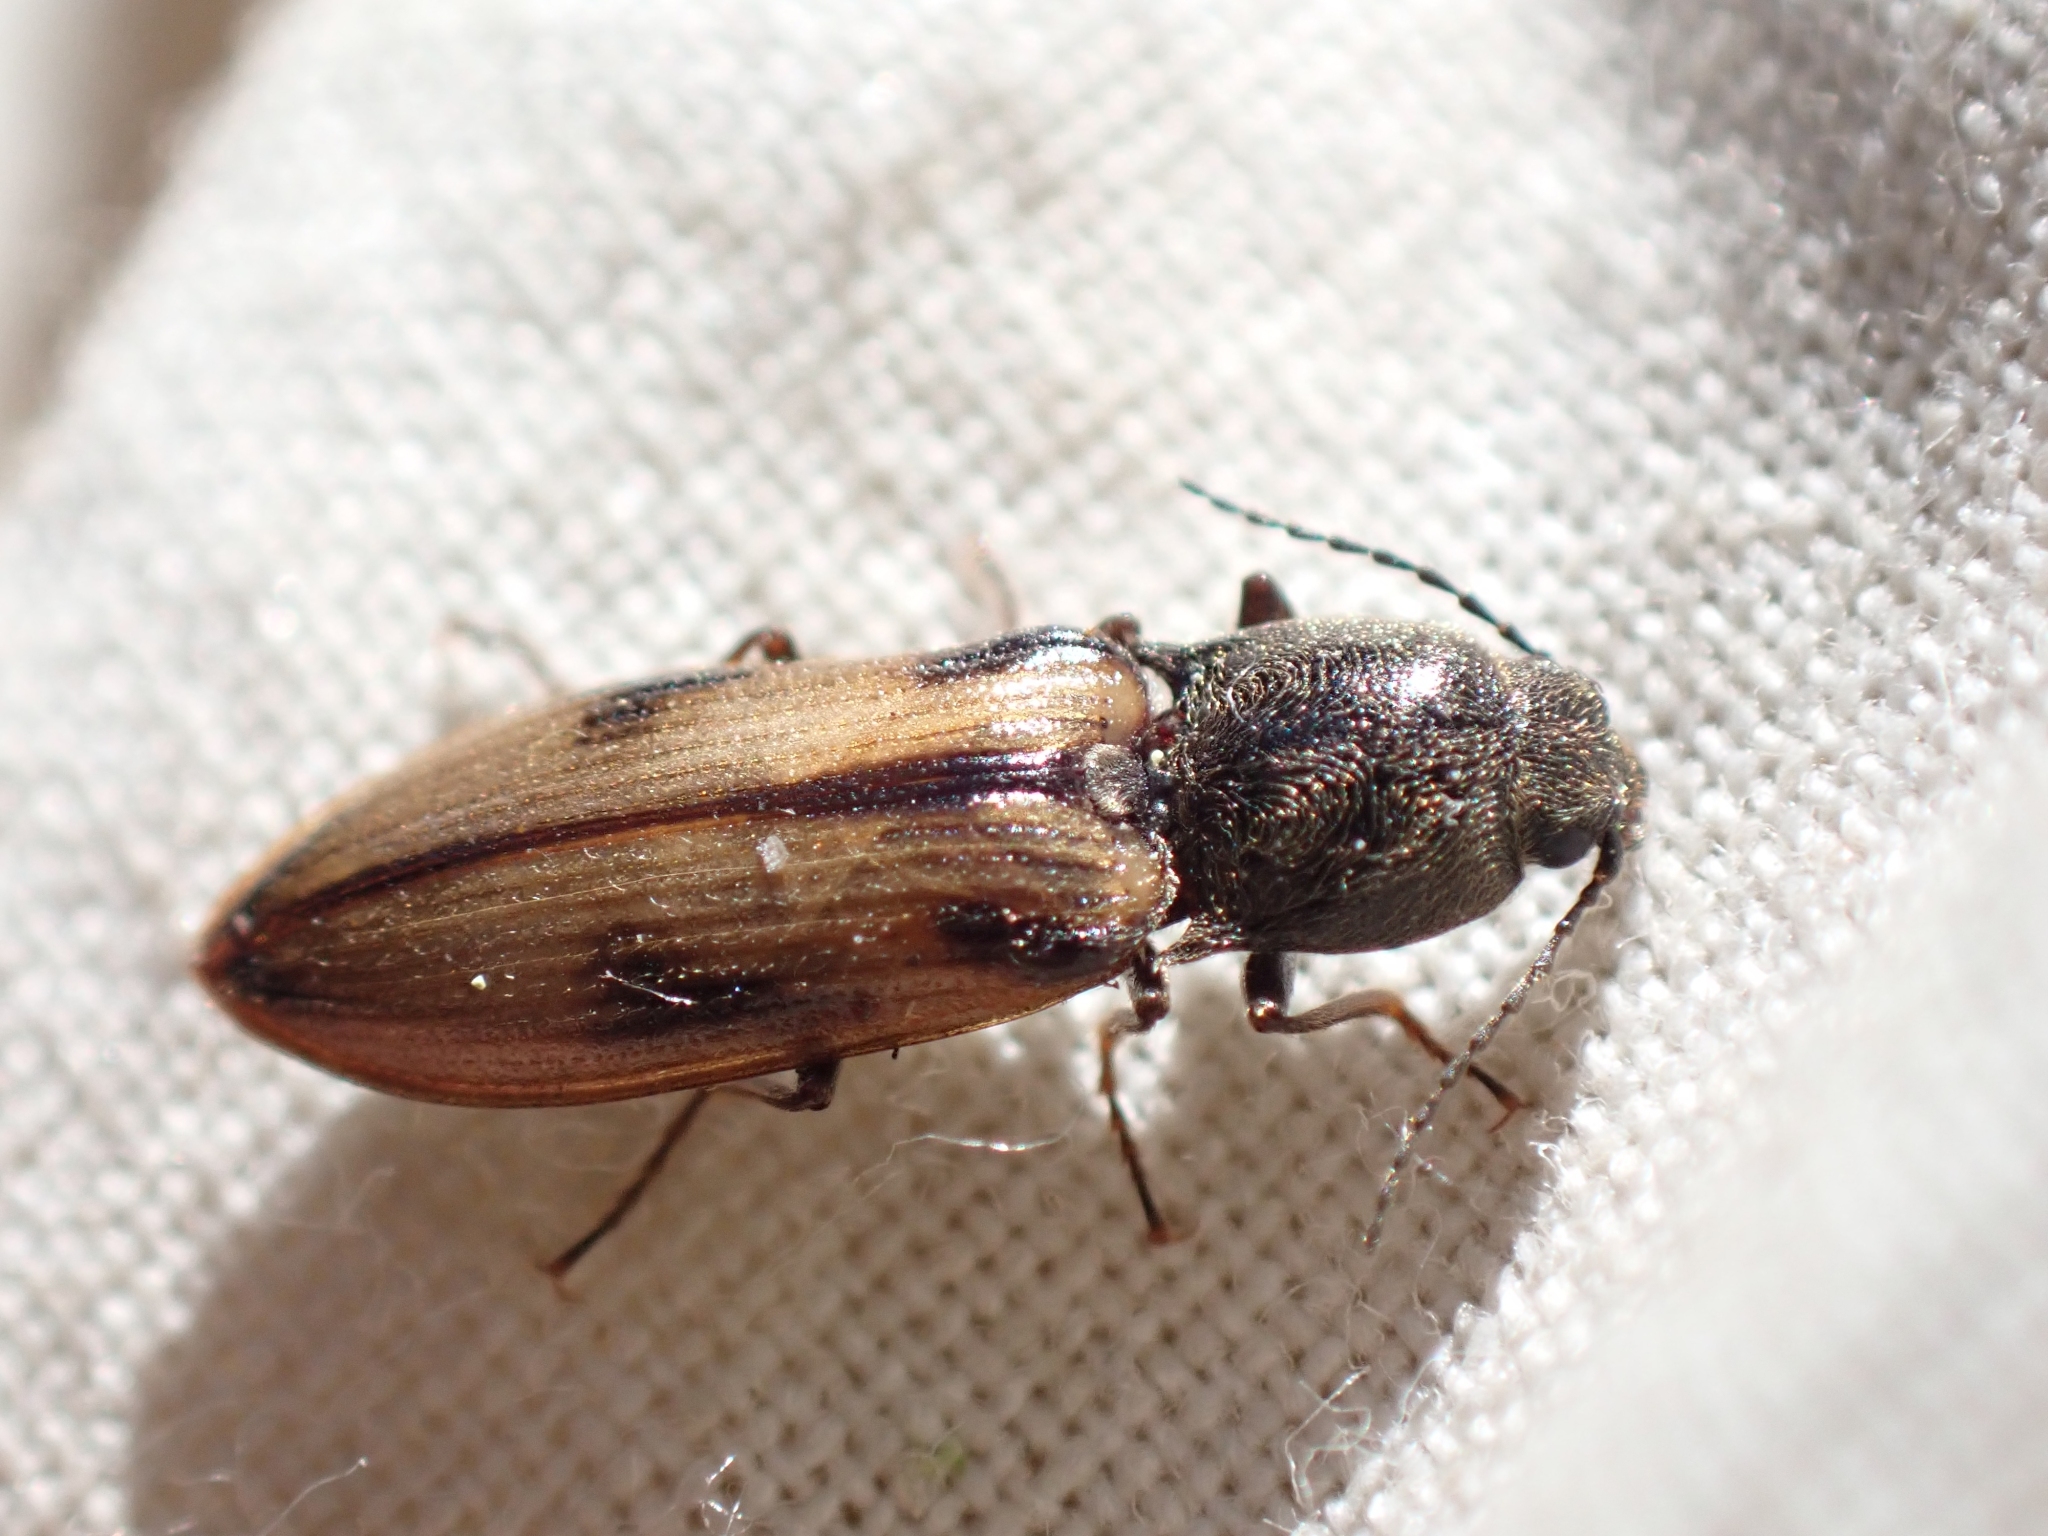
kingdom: Animalia
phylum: Arthropoda
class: Insecta
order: Coleoptera
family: Elateridae
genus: Liotrichus
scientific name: Liotrichus umbripennis
